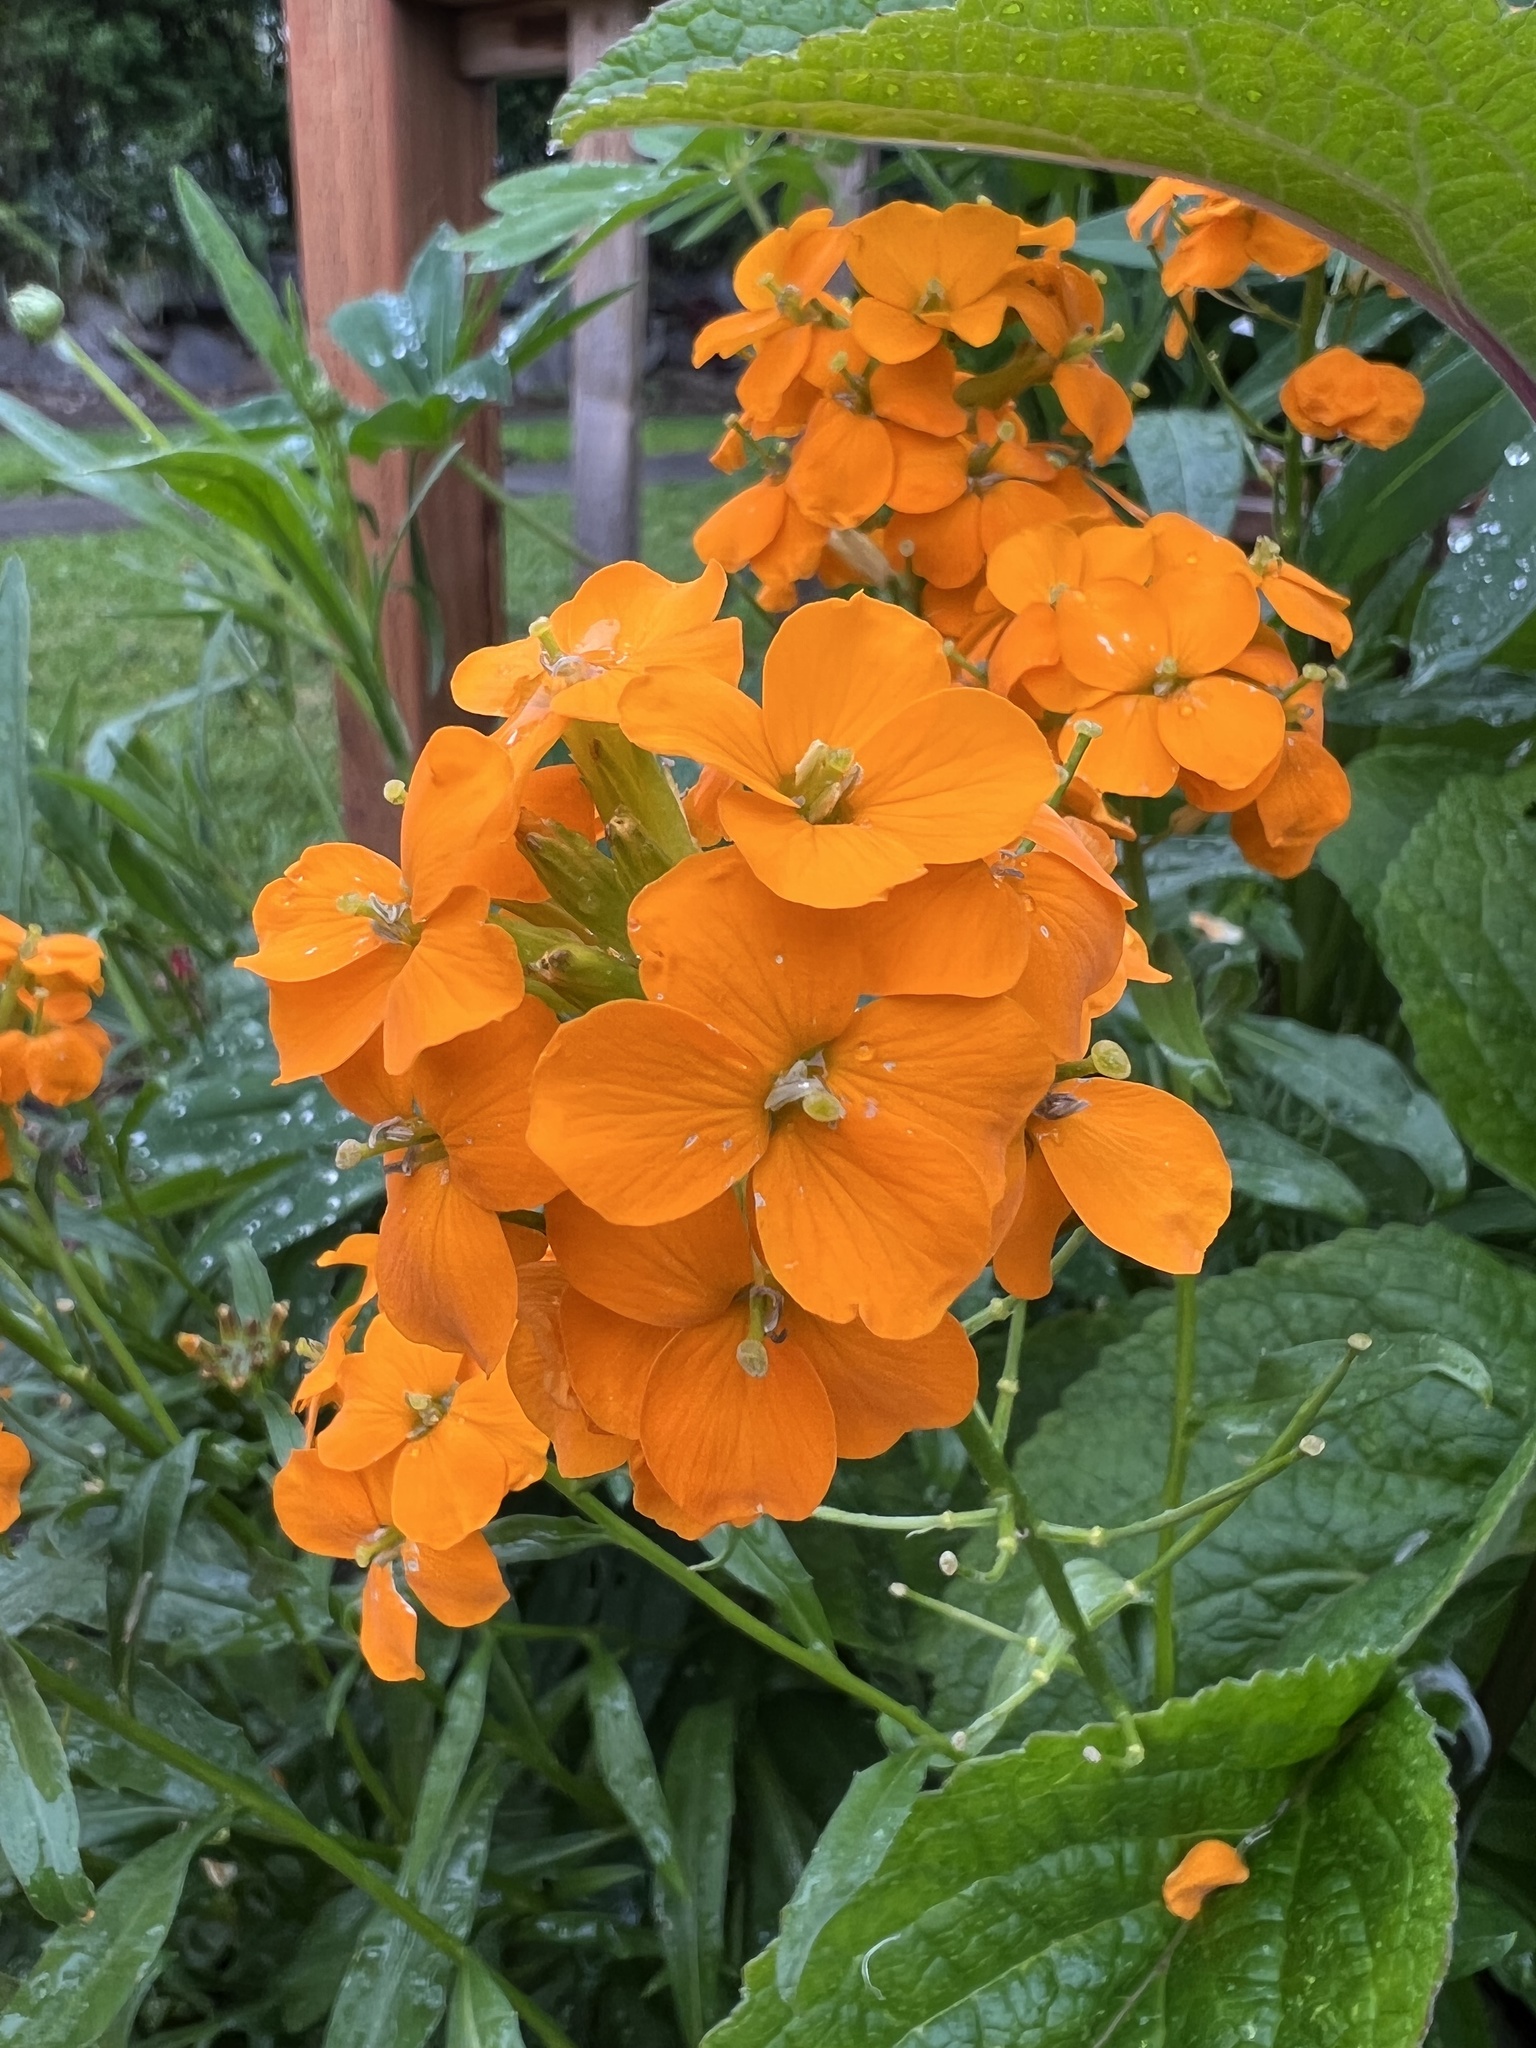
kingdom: Plantae
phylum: Tracheophyta
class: Magnoliopsida
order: Brassicales
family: Brassicaceae
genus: Erysimum
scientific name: Erysimum capitatum
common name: Western wallflower
